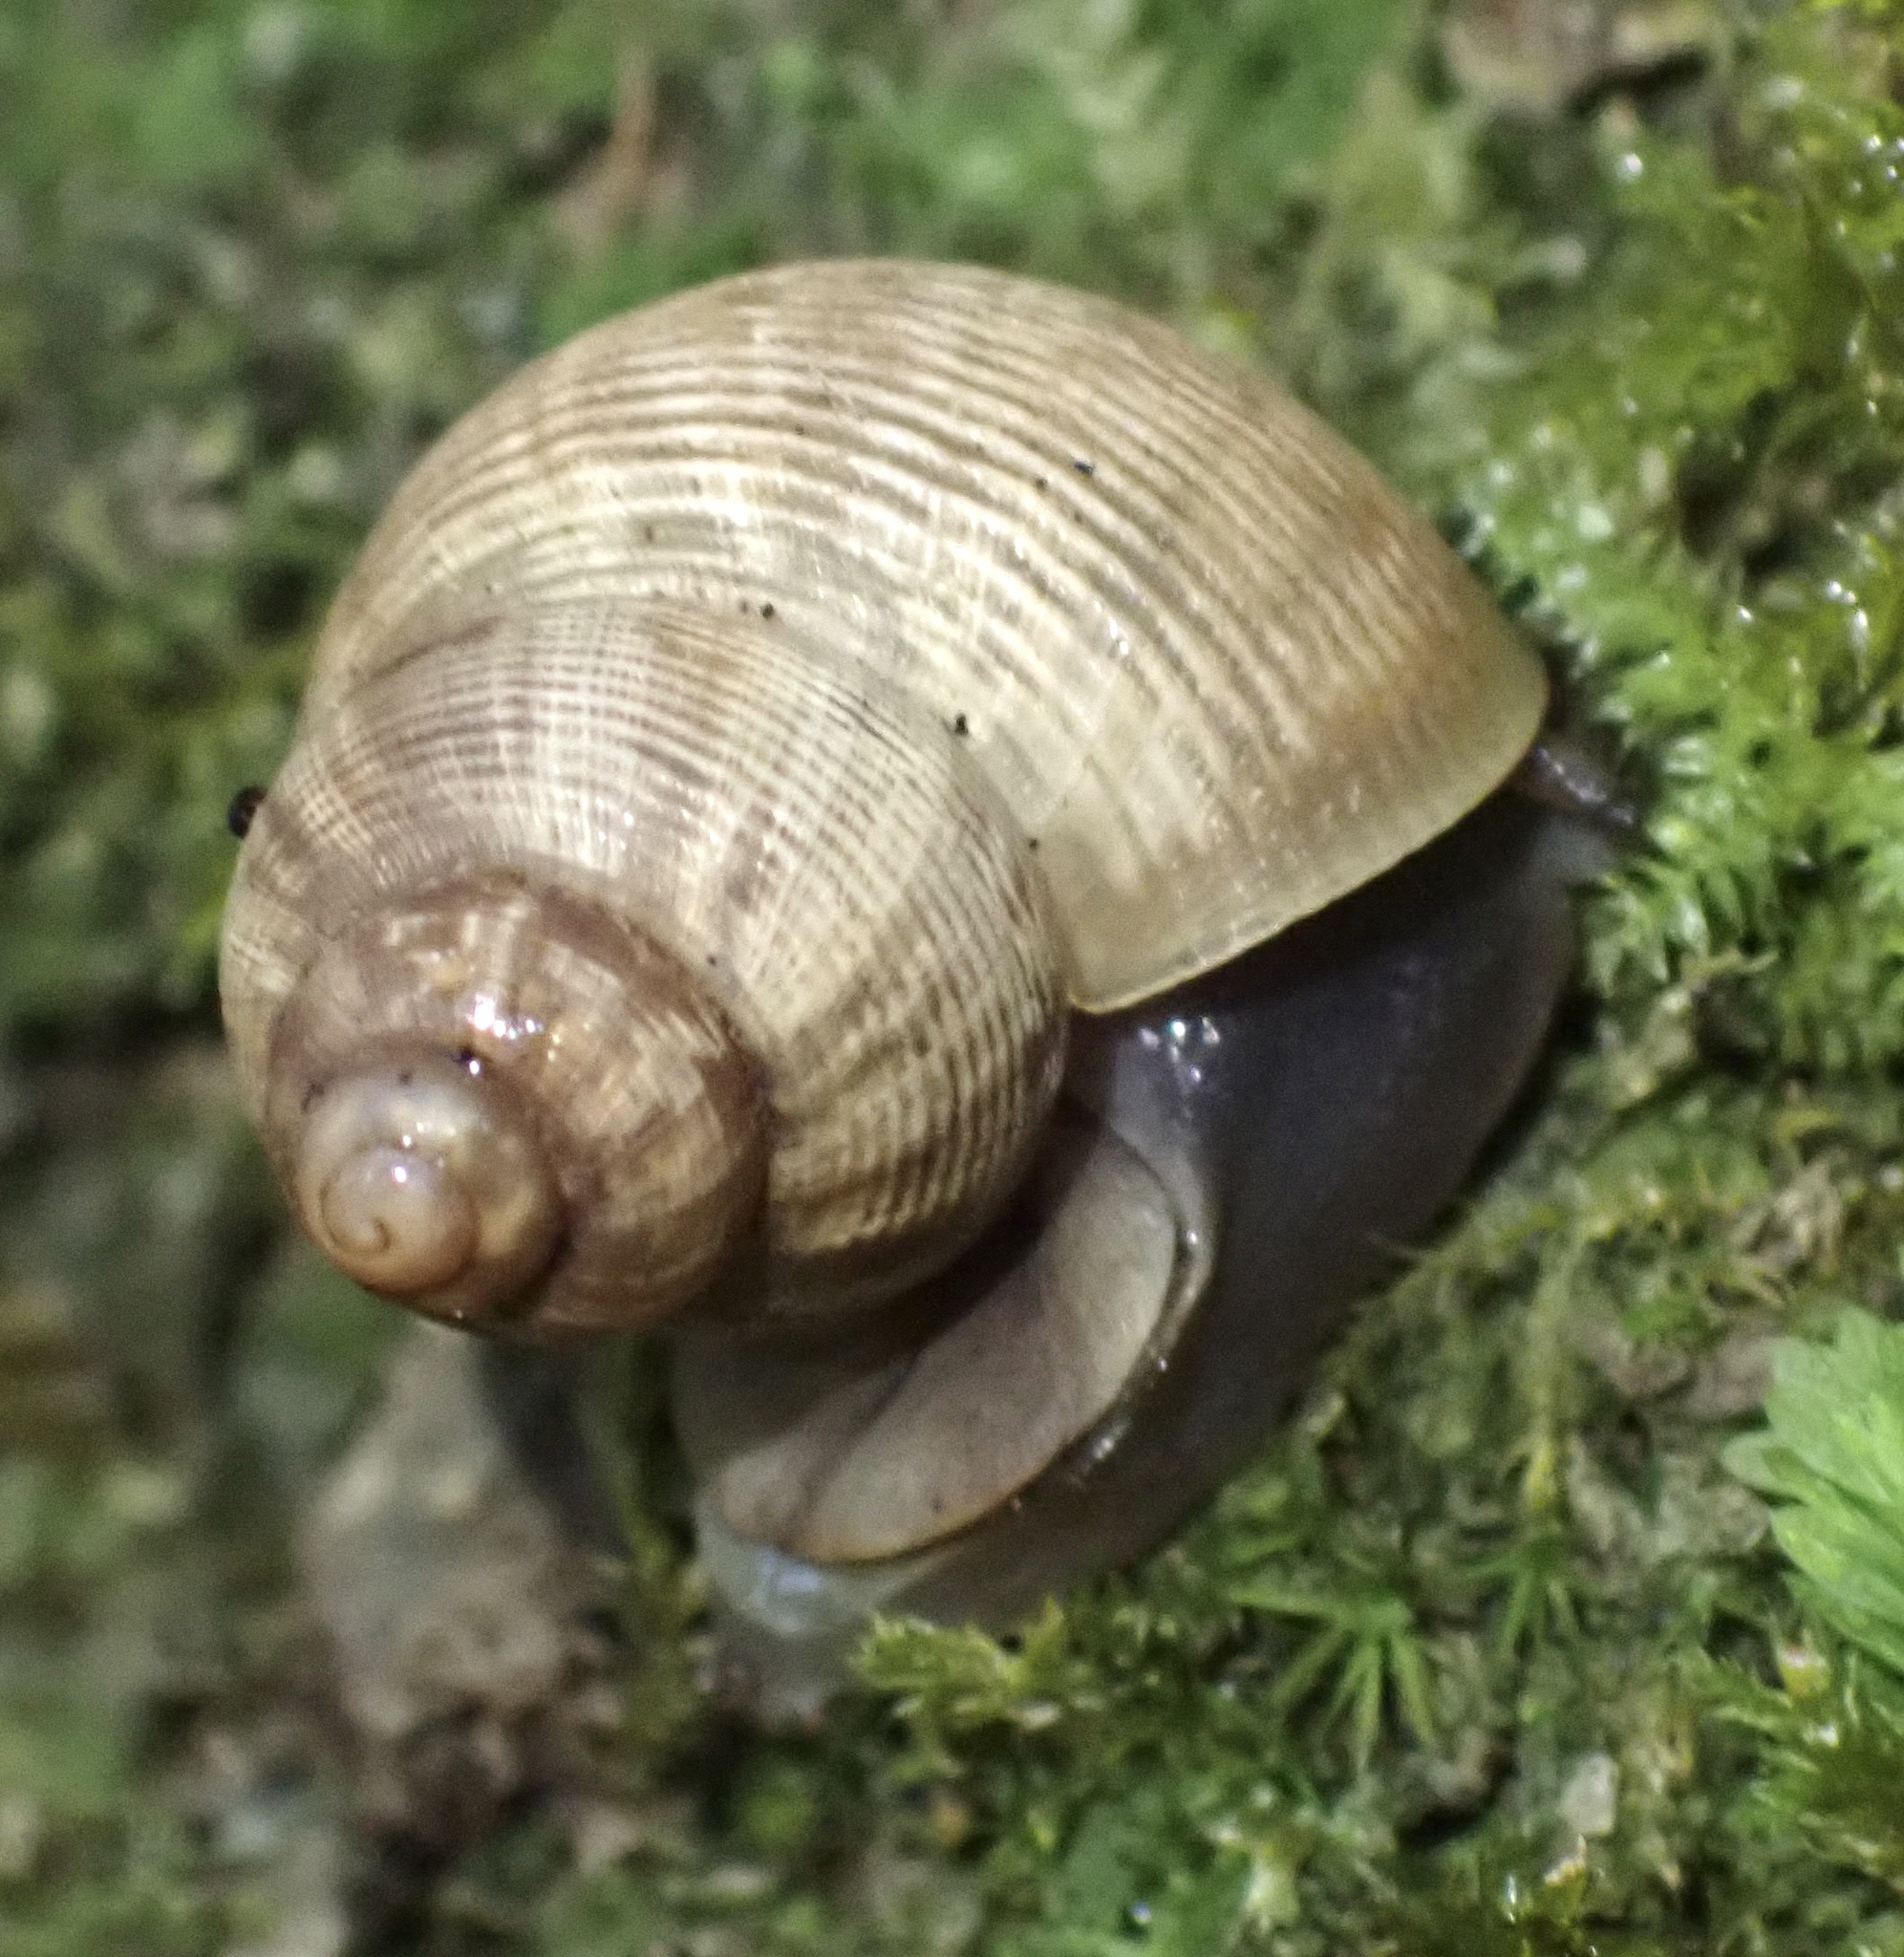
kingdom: Animalia
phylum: Mollusca
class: Gastropoda
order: Littorinimorpha
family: Pomatiidae
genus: Pomatias
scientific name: Pomatias elegans
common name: Red-mouthed snail
